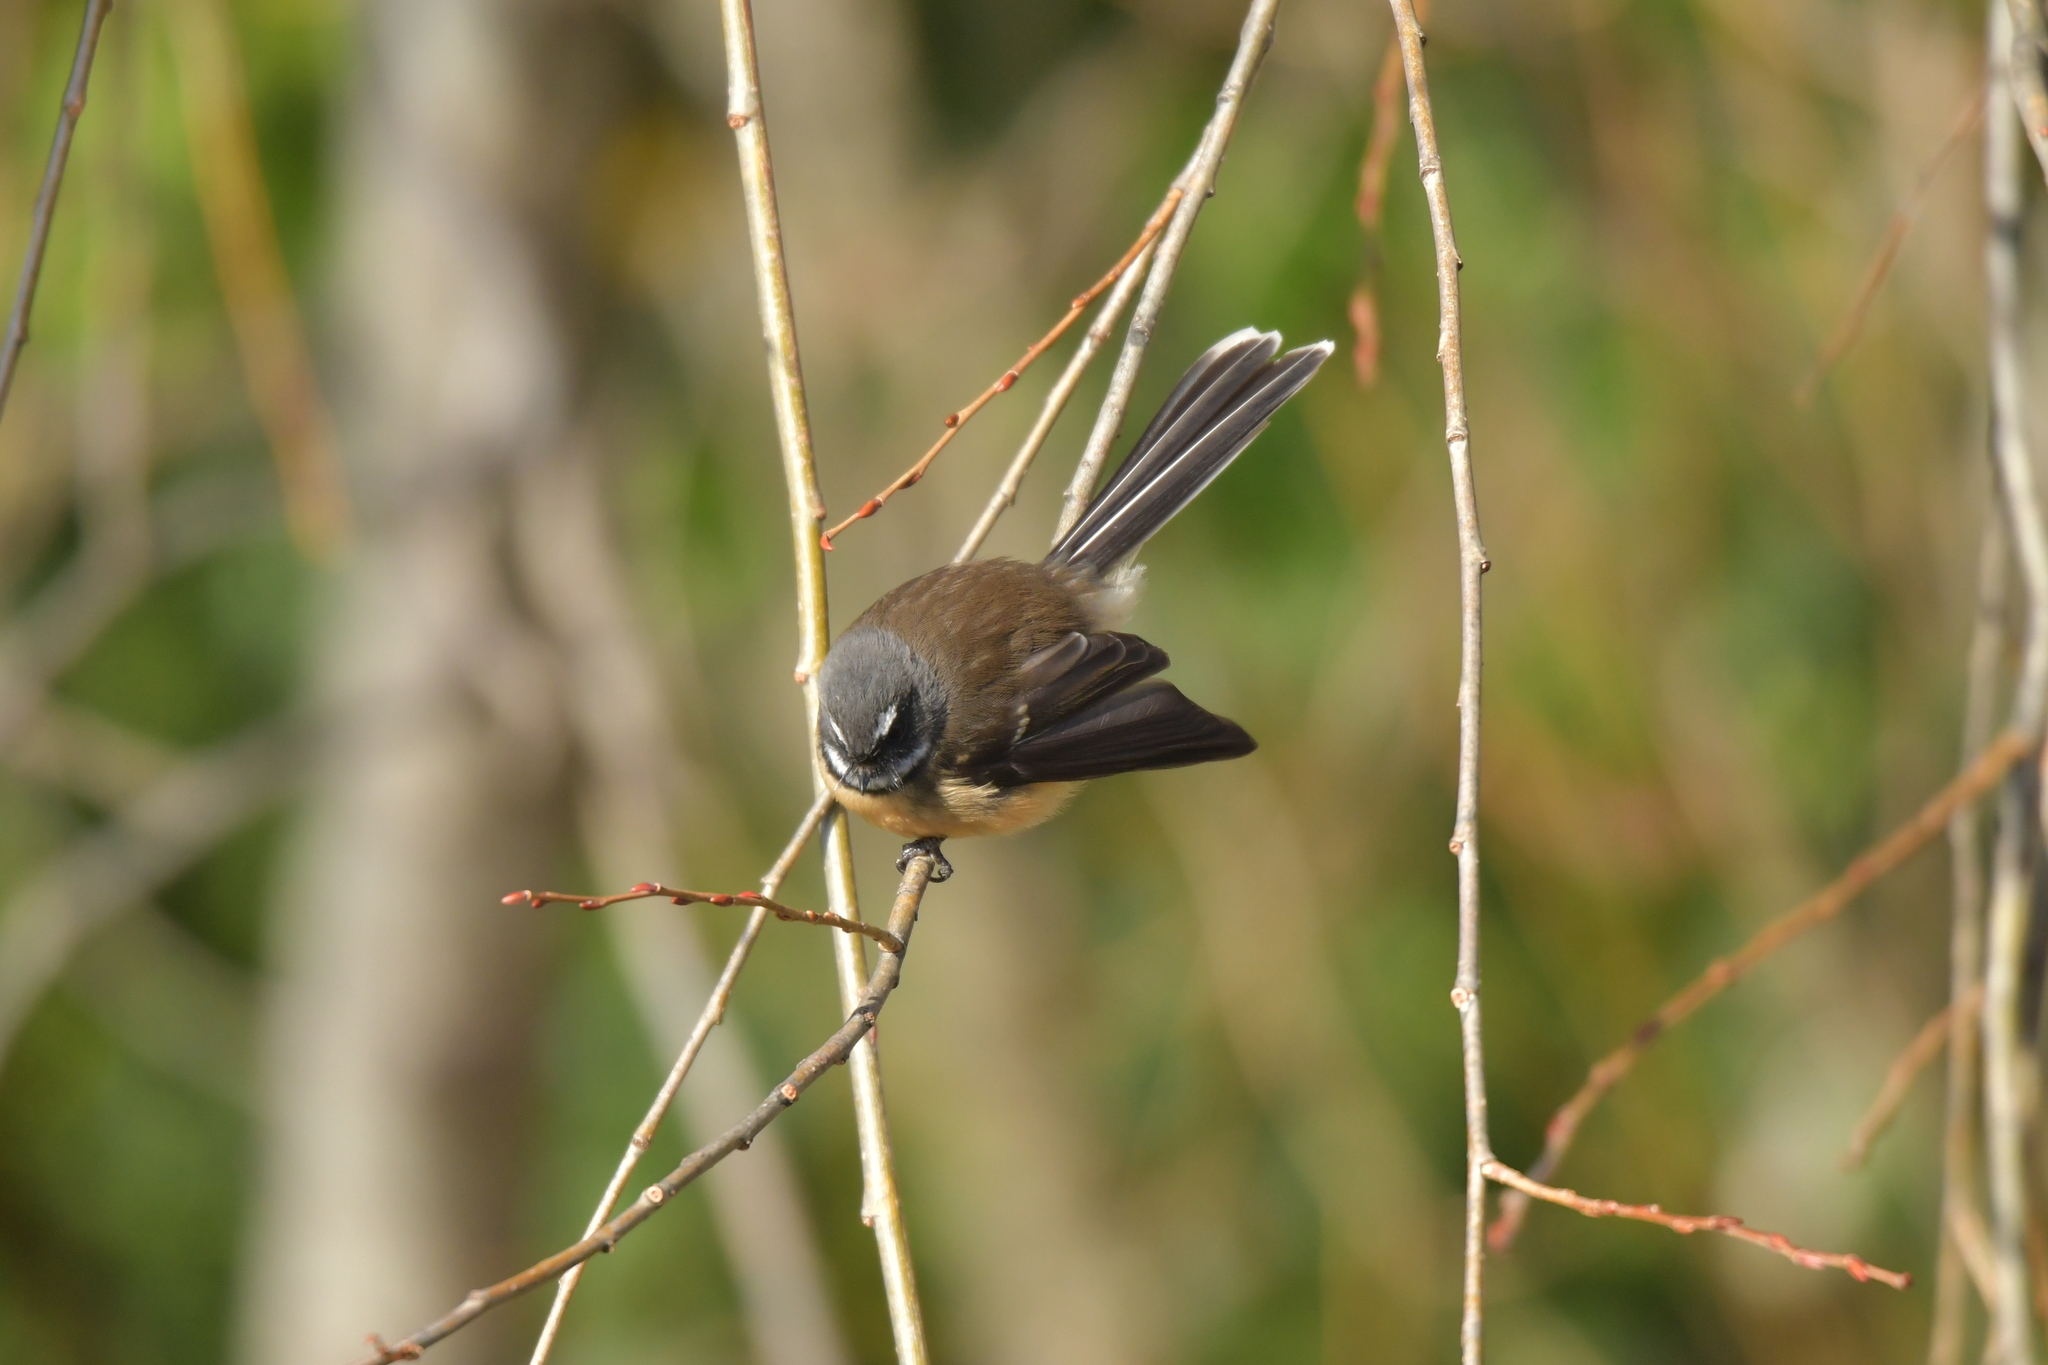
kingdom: Animalia
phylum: Chordata
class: Aves
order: Passeriformes
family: Rhipiduridae
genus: Rhipidura
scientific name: Rhipidura fuliginosa
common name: New zealand fantail
